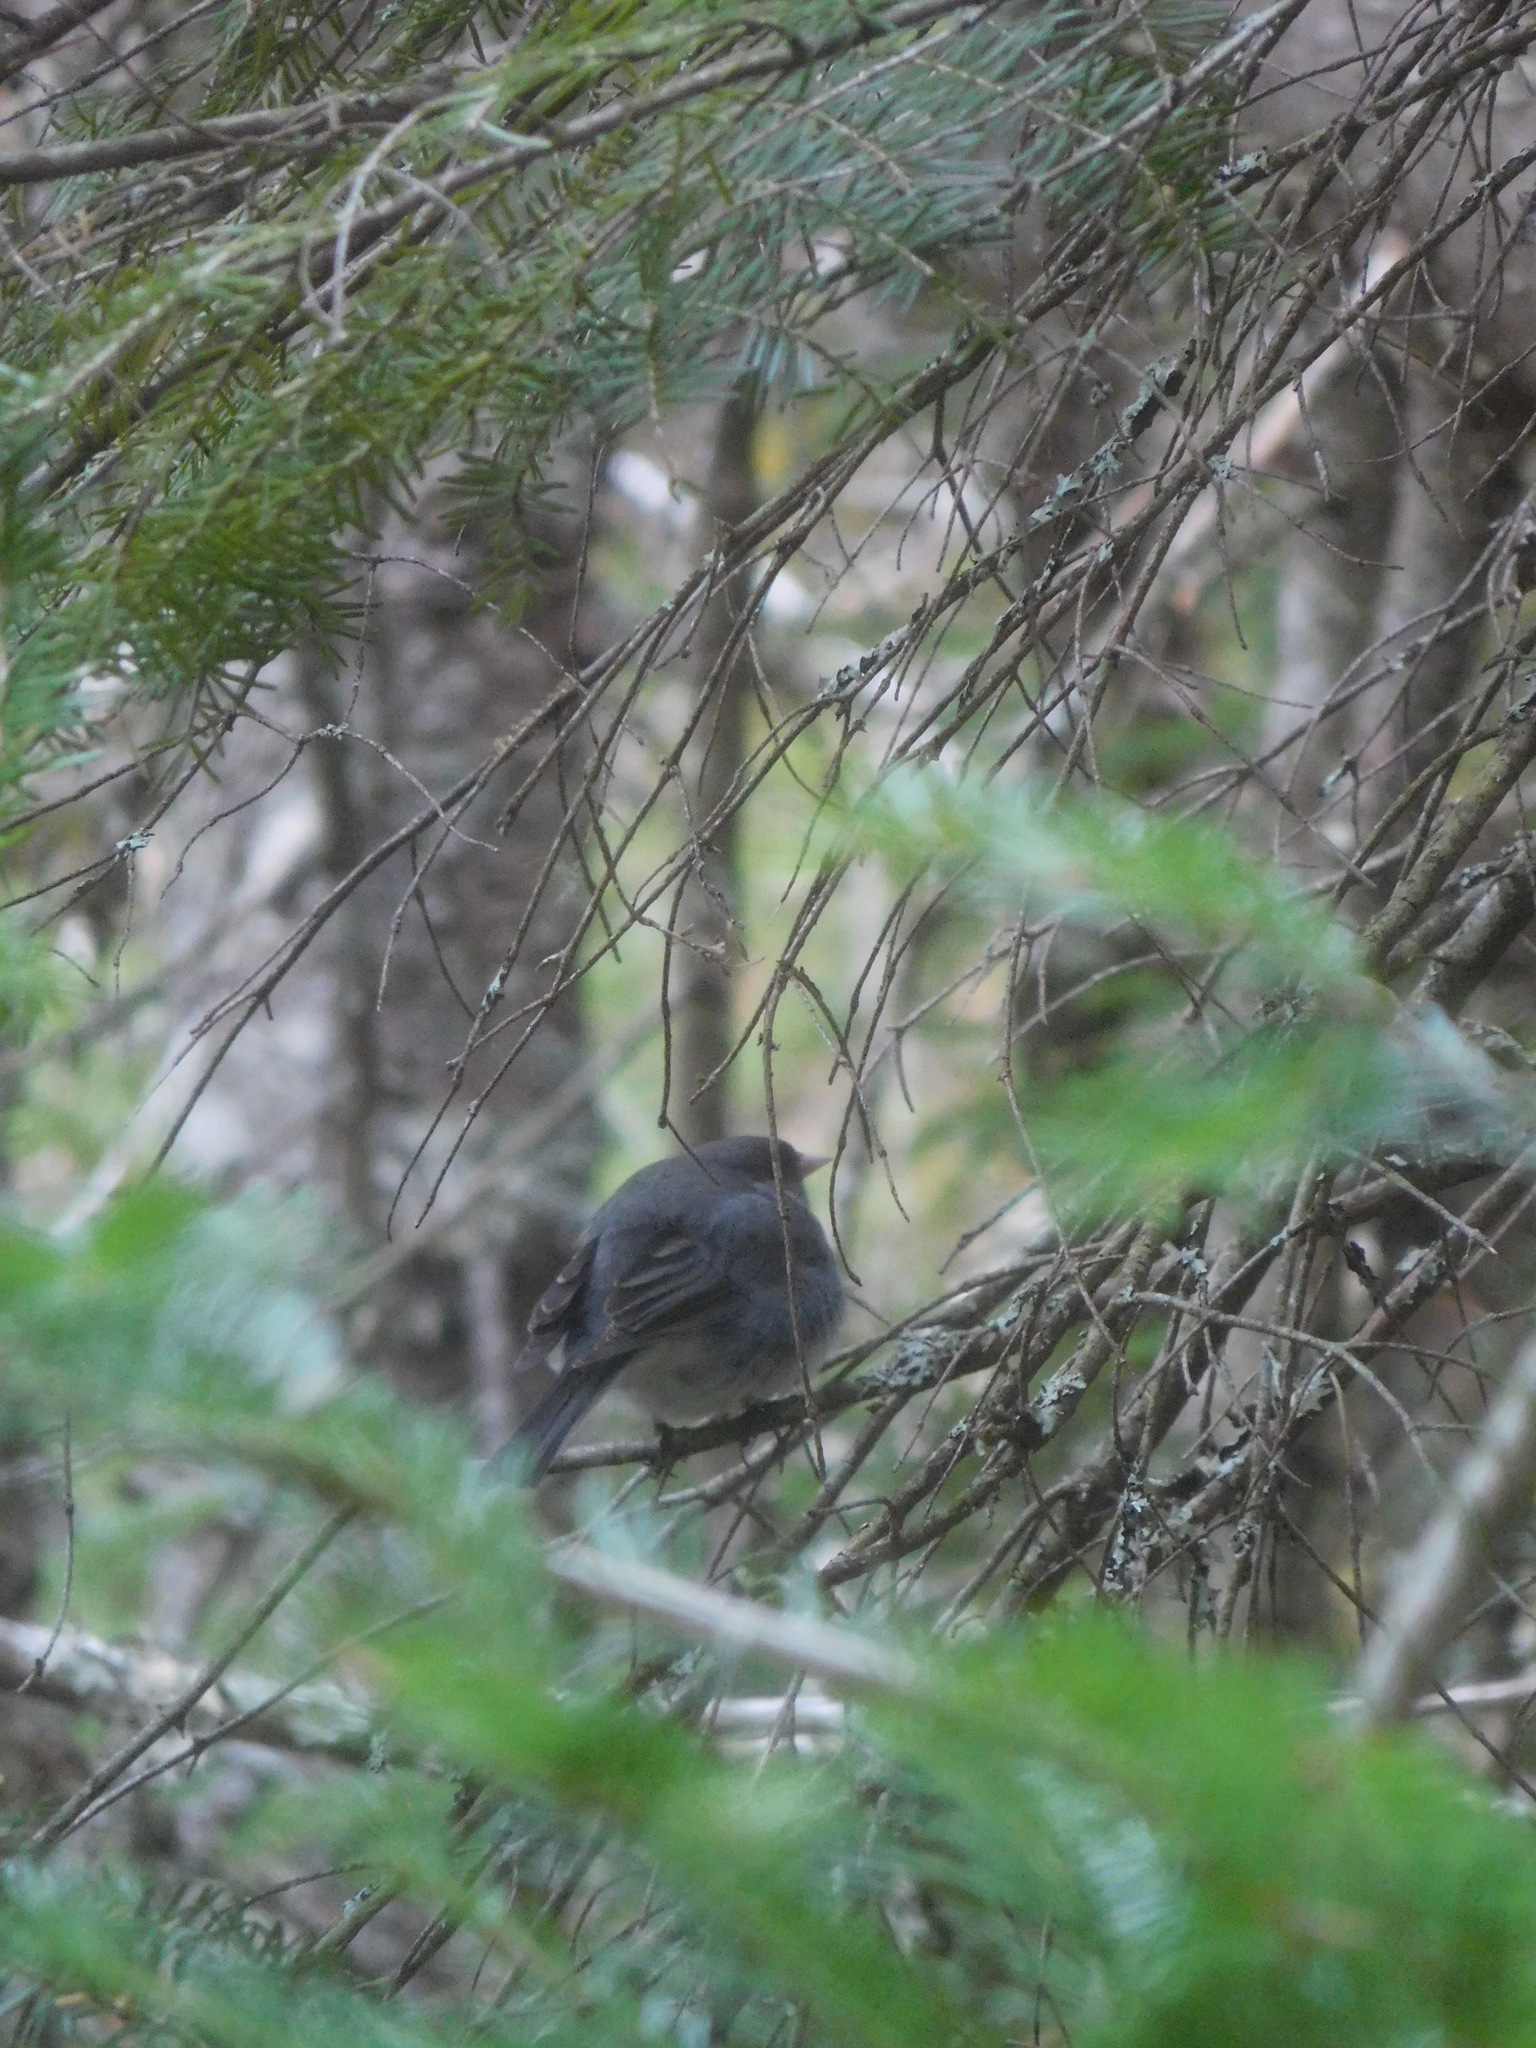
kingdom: Animalia
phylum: Chordata
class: Aves
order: Passeriformes
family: Passerellidae
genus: Junco
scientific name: Junco hyemalis
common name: Dark-eyed junco
